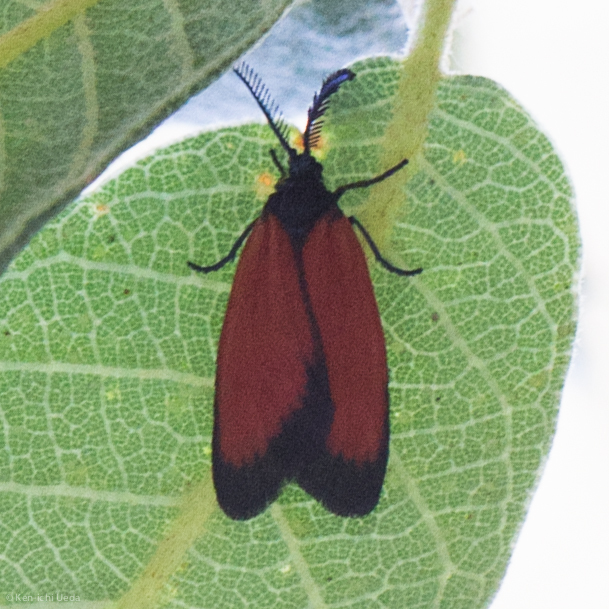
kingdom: Animalia
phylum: Arthropoda
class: Insecta
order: Lepidoptera
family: Zygaenidae
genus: Malthaca
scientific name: Malthaca
